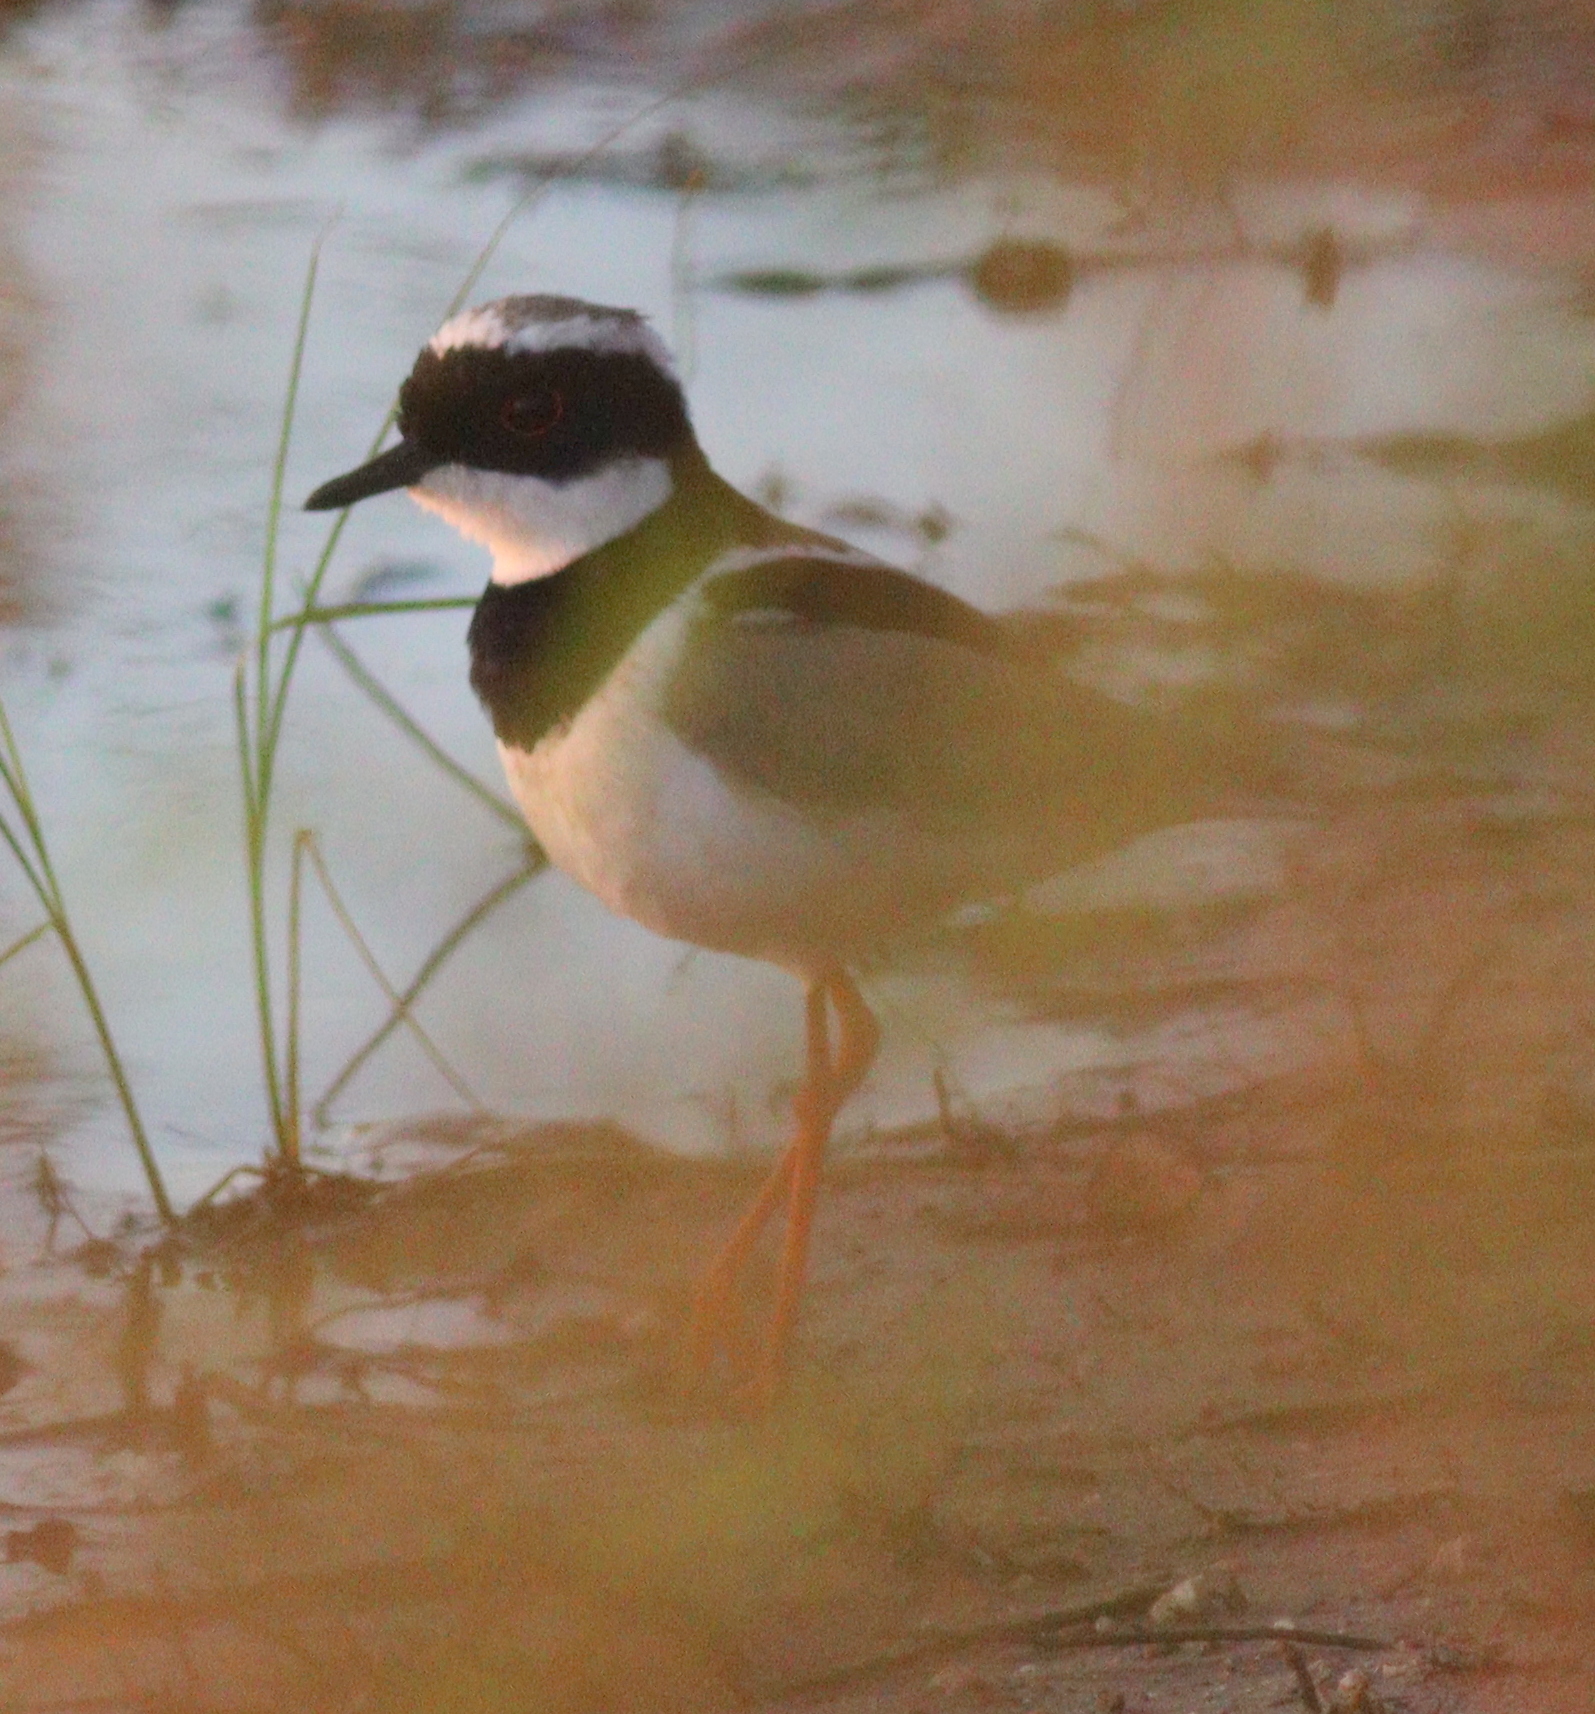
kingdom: Animalia
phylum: Chordata
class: Aves
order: Charadriiformes
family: Charadriidae
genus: Hoploxypterus
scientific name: Hoploxypterus cayanus
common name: Pied plover
